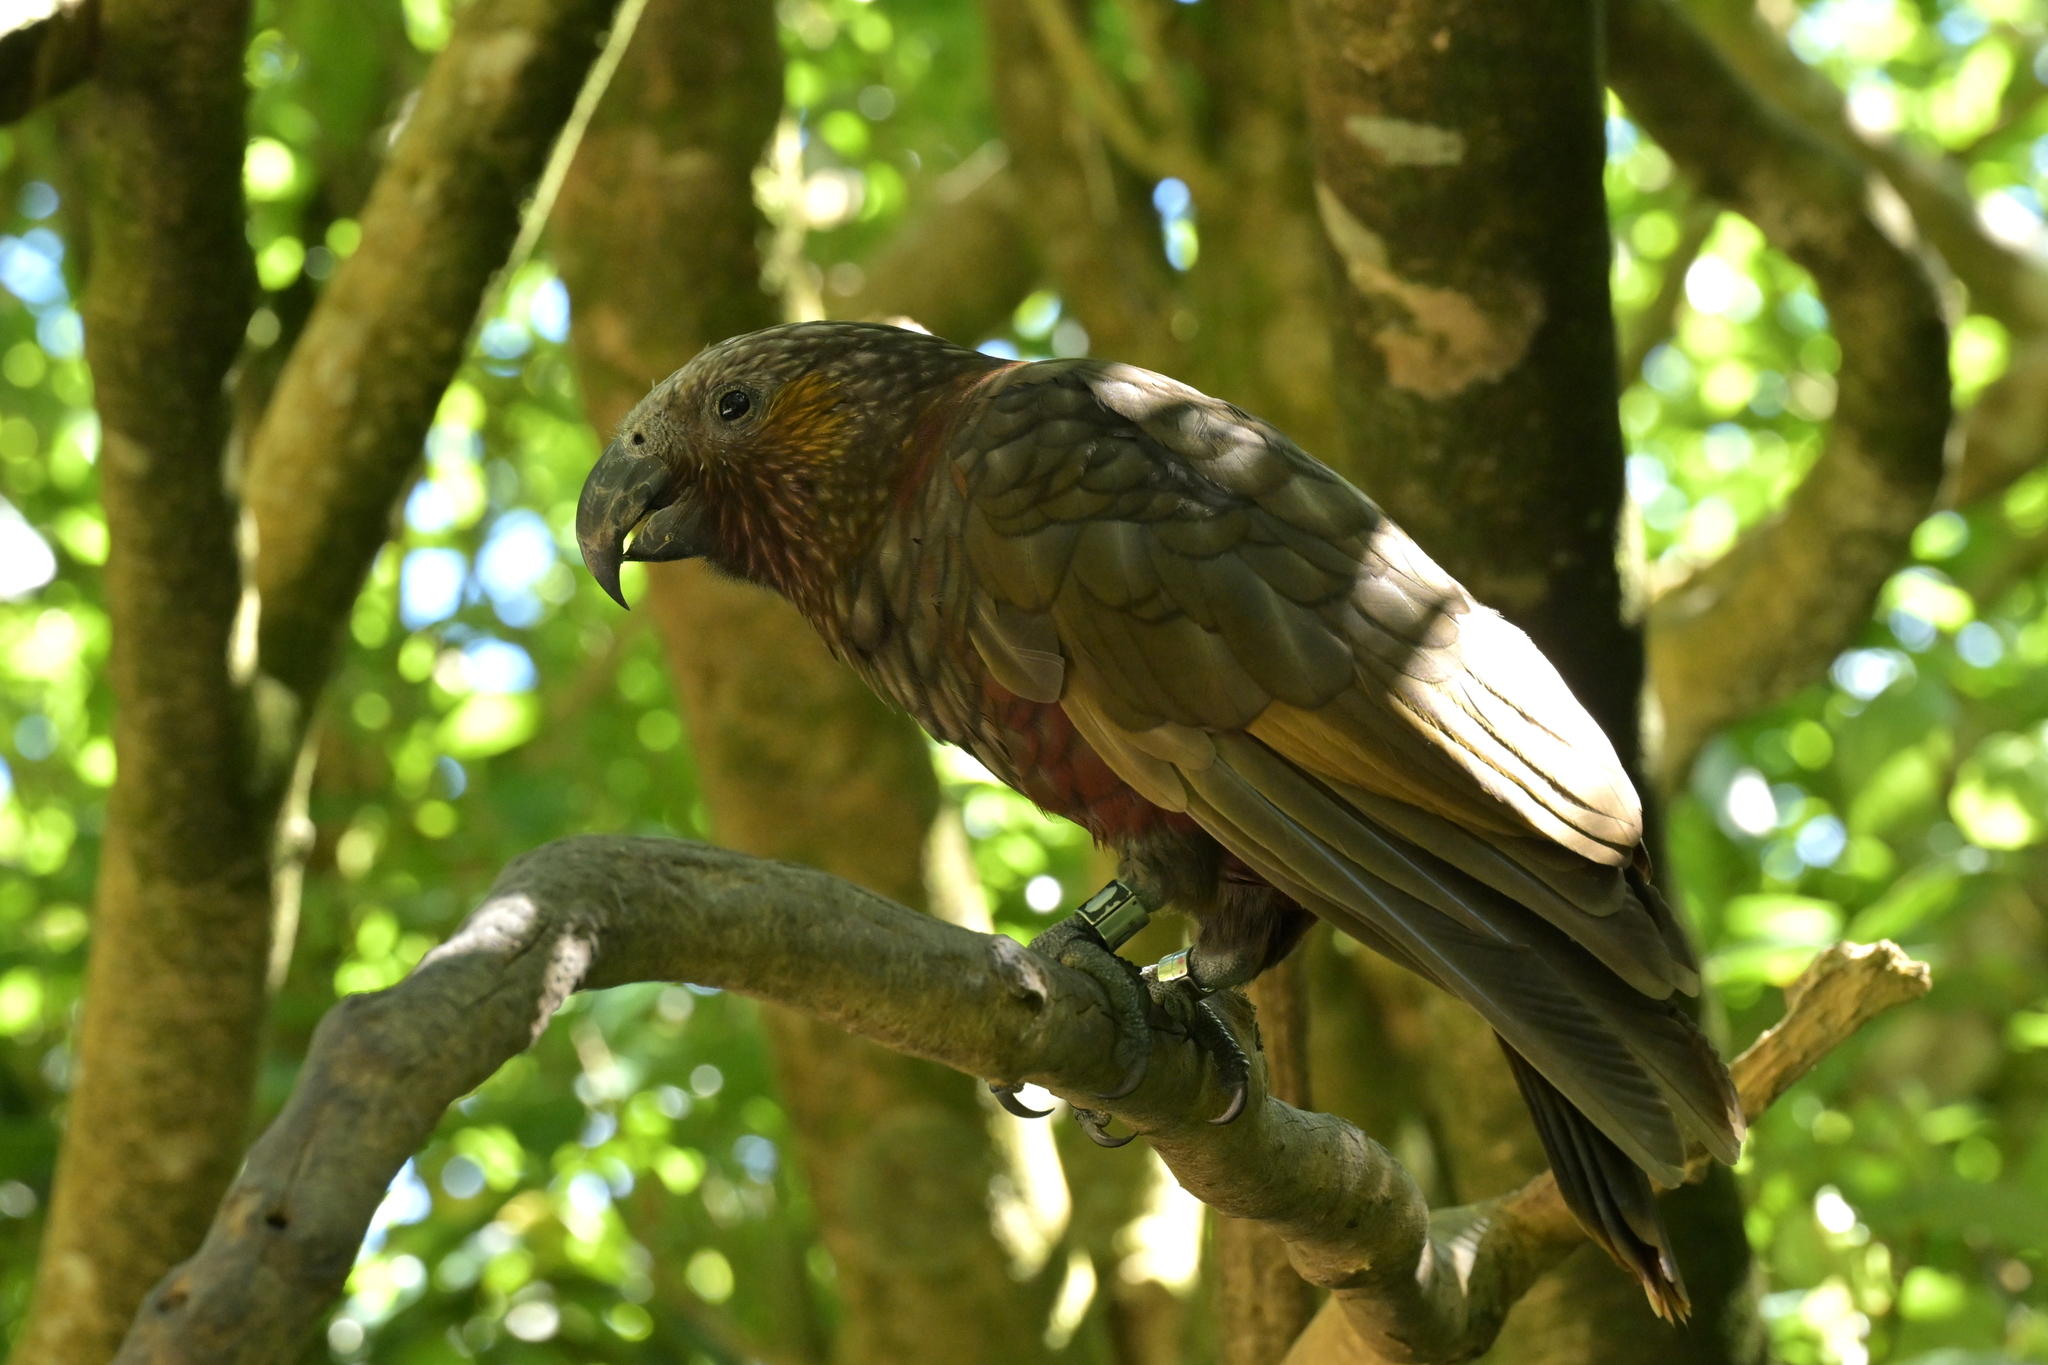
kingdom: Animalia
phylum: Chordata
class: Aves
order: Psittaciformes
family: Psittacidae
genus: Nestor
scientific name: Nestor meridionalis
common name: New zealand kaka
